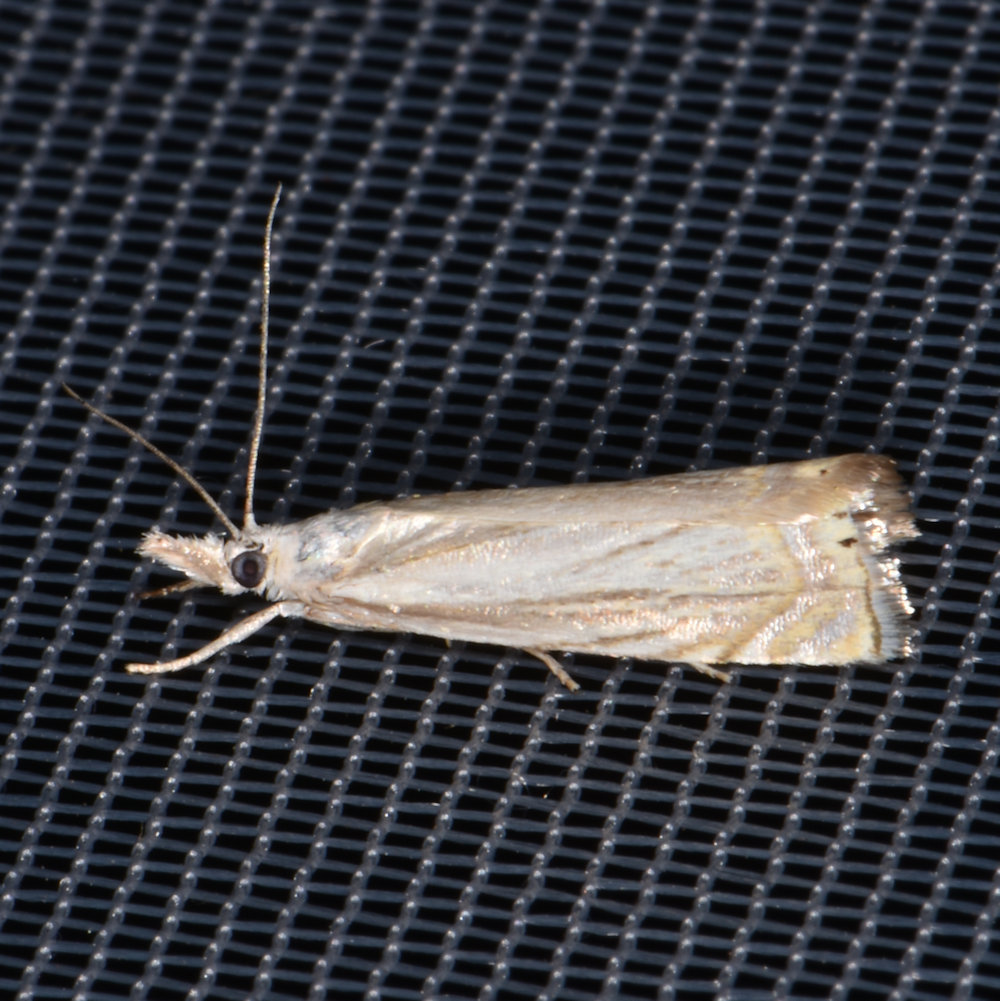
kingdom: Animalia
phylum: Arthropoda
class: Insecta
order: Lepidoptera
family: Crambidae
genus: Chrysoteuchia
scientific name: Chrysoteuchia topiarius
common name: Topiary grass-veneer
